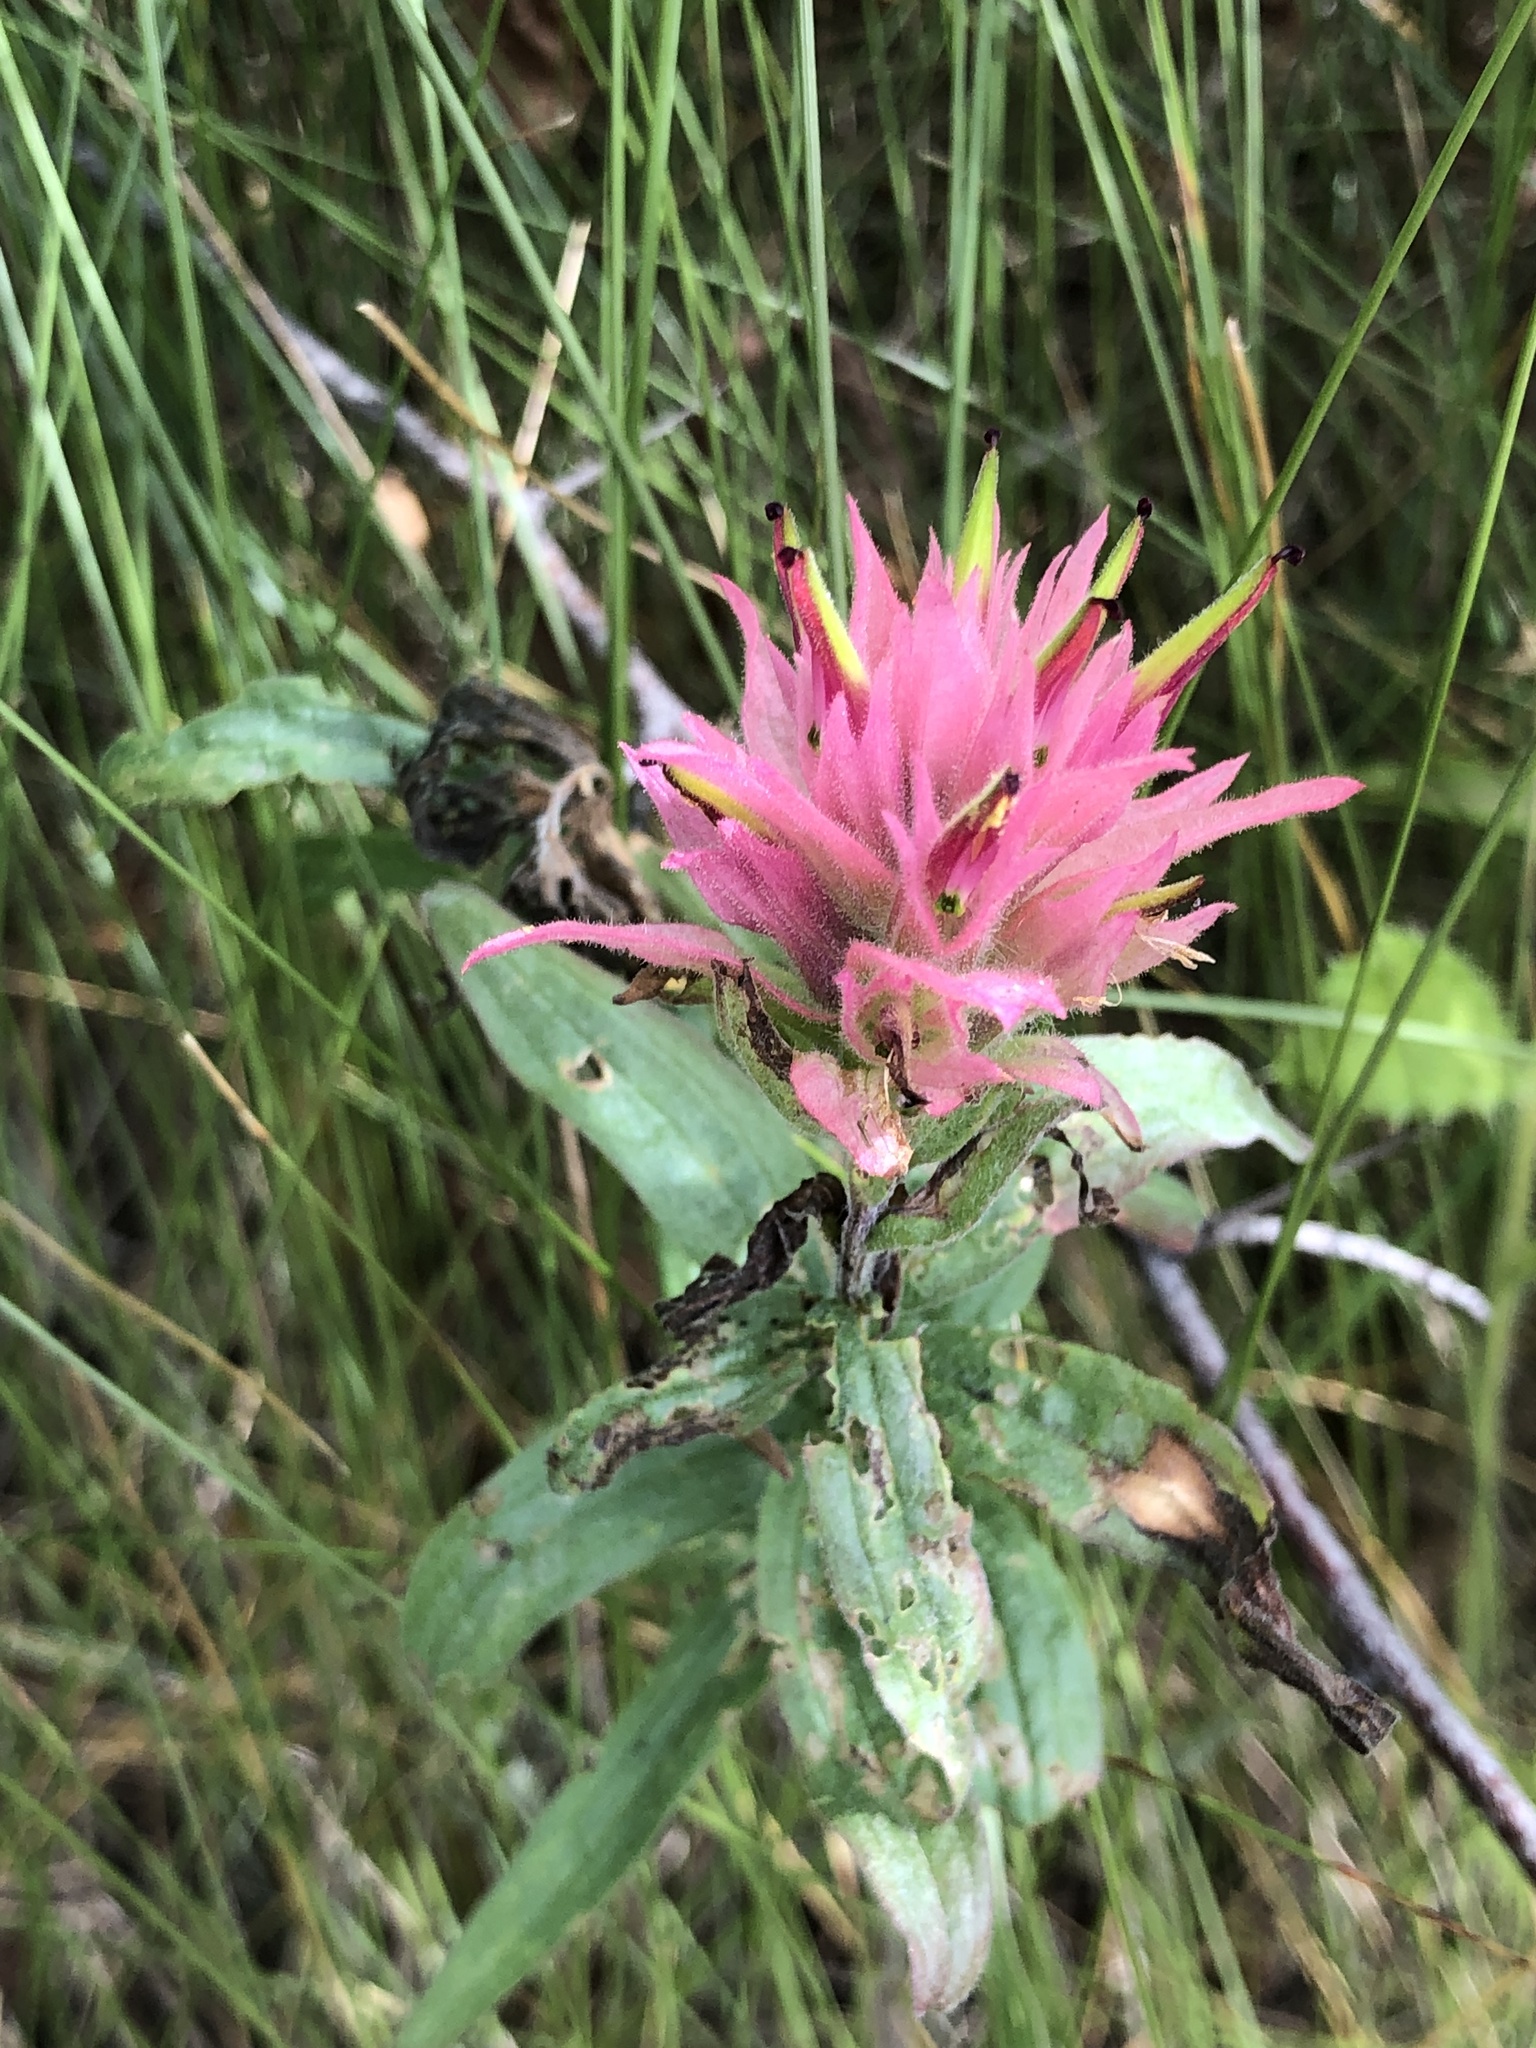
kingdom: Plantae
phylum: Tracheophyta
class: Magnoliopsida
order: Lamiales
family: Orobanchaceae
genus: Castilleja
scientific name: Castilleja miniata
